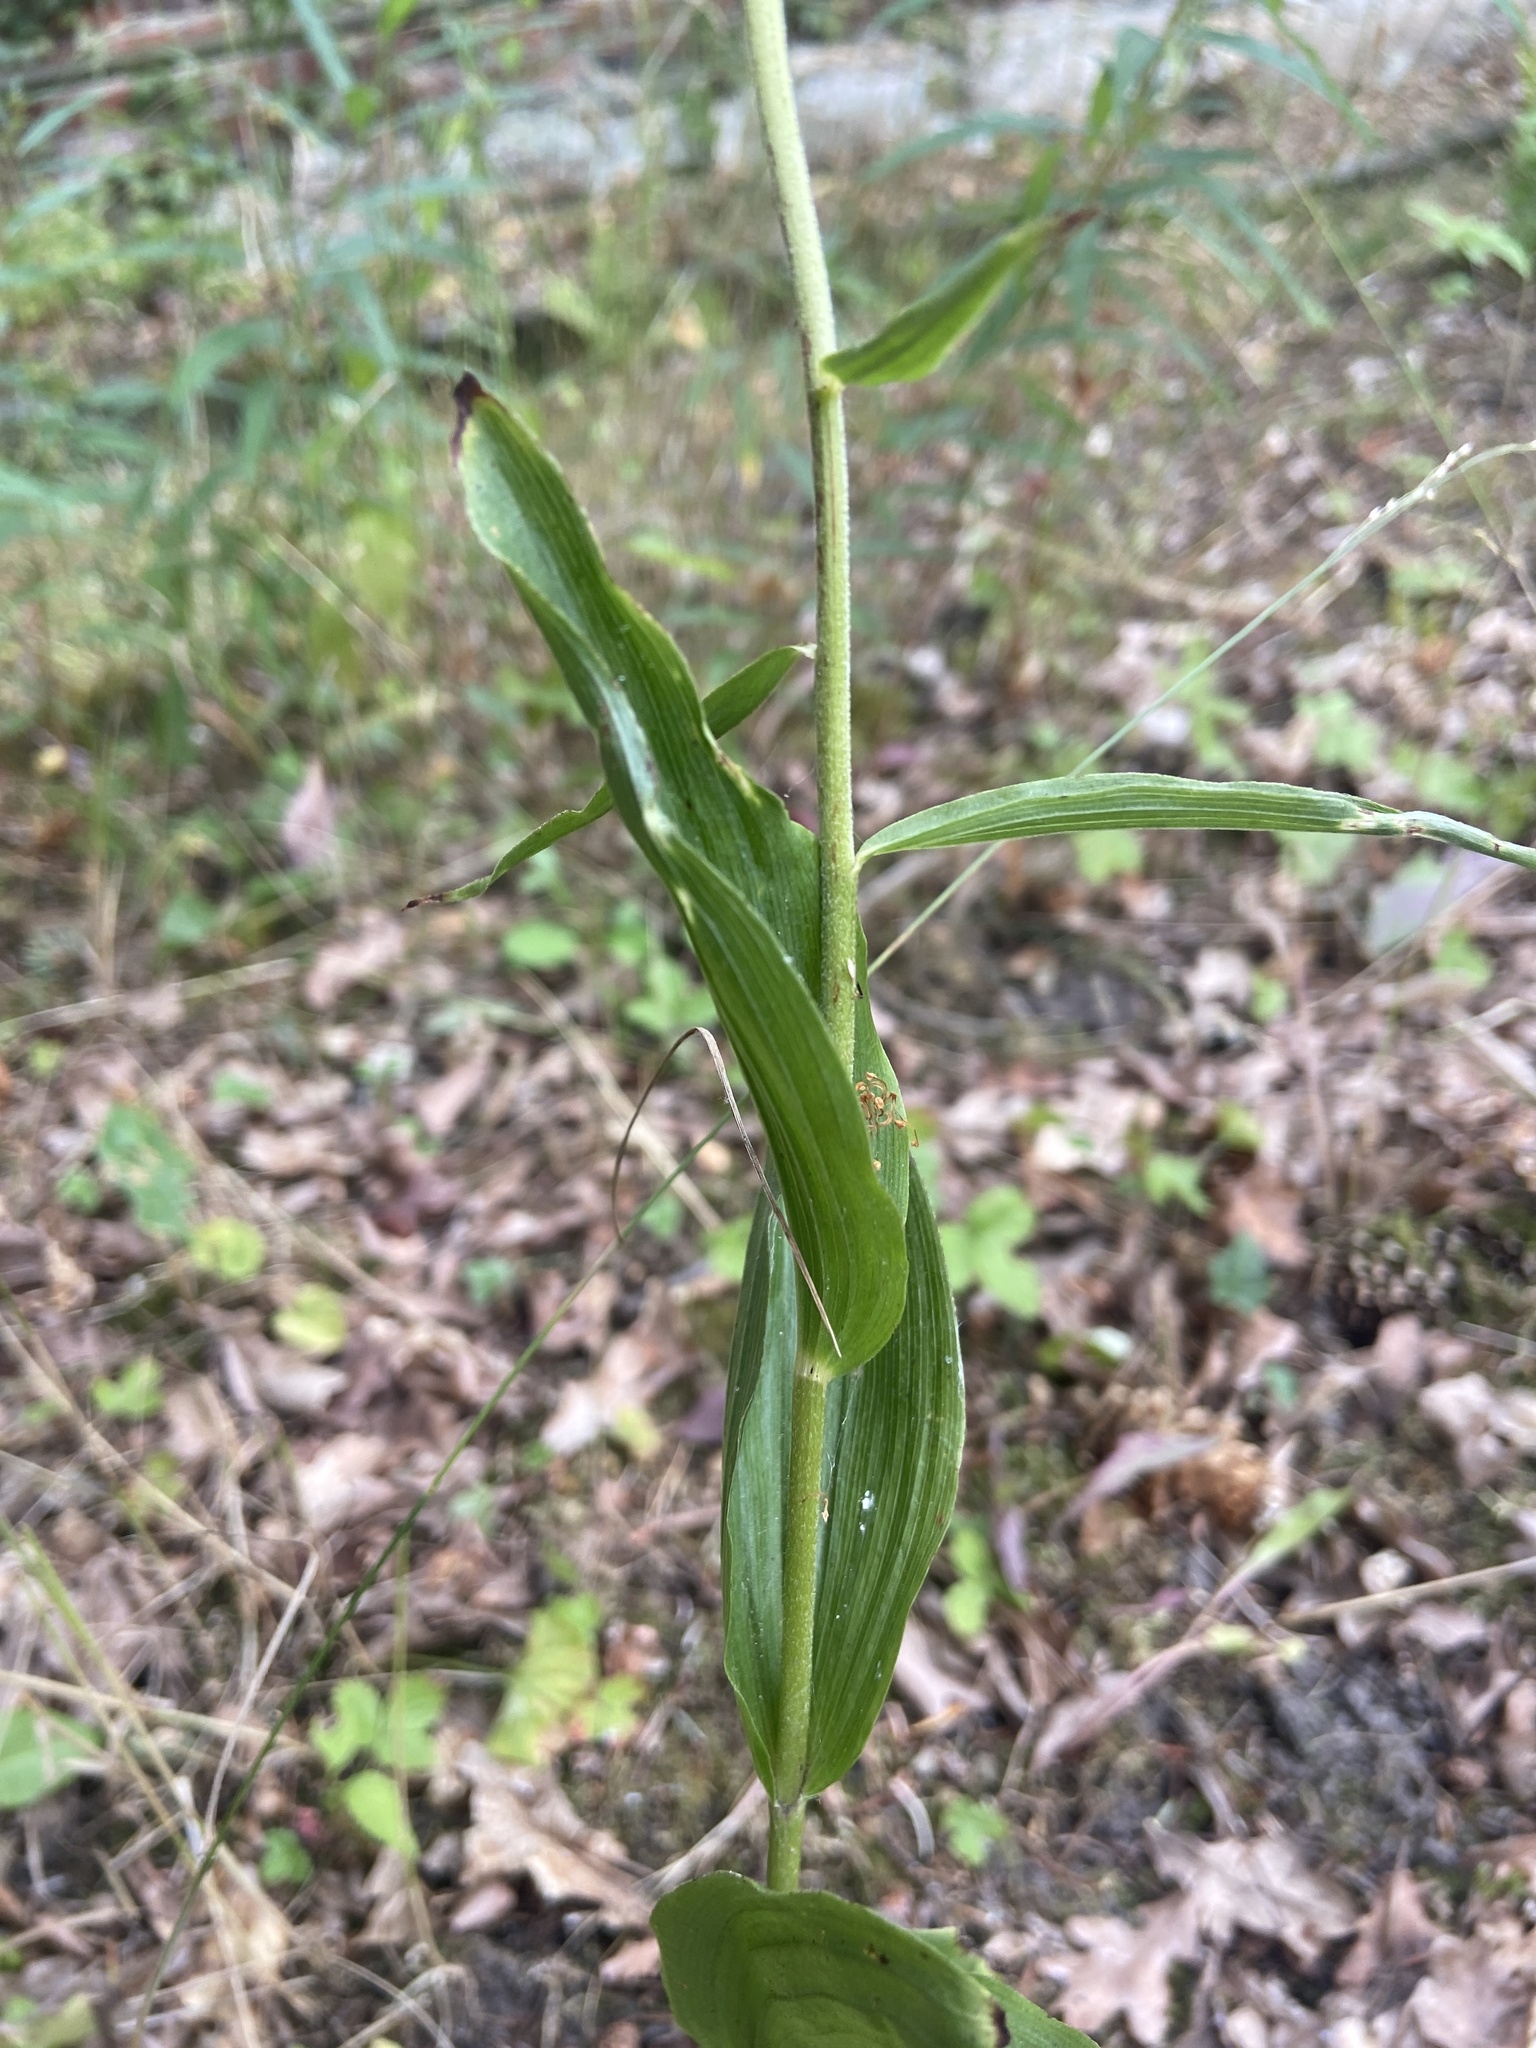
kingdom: Plantae
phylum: Tracheophyta
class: Liliopsida
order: Asparagales
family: Orchidaceae
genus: Epipactis
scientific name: Epipactis helleborine
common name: Broad-leaved helleborine
